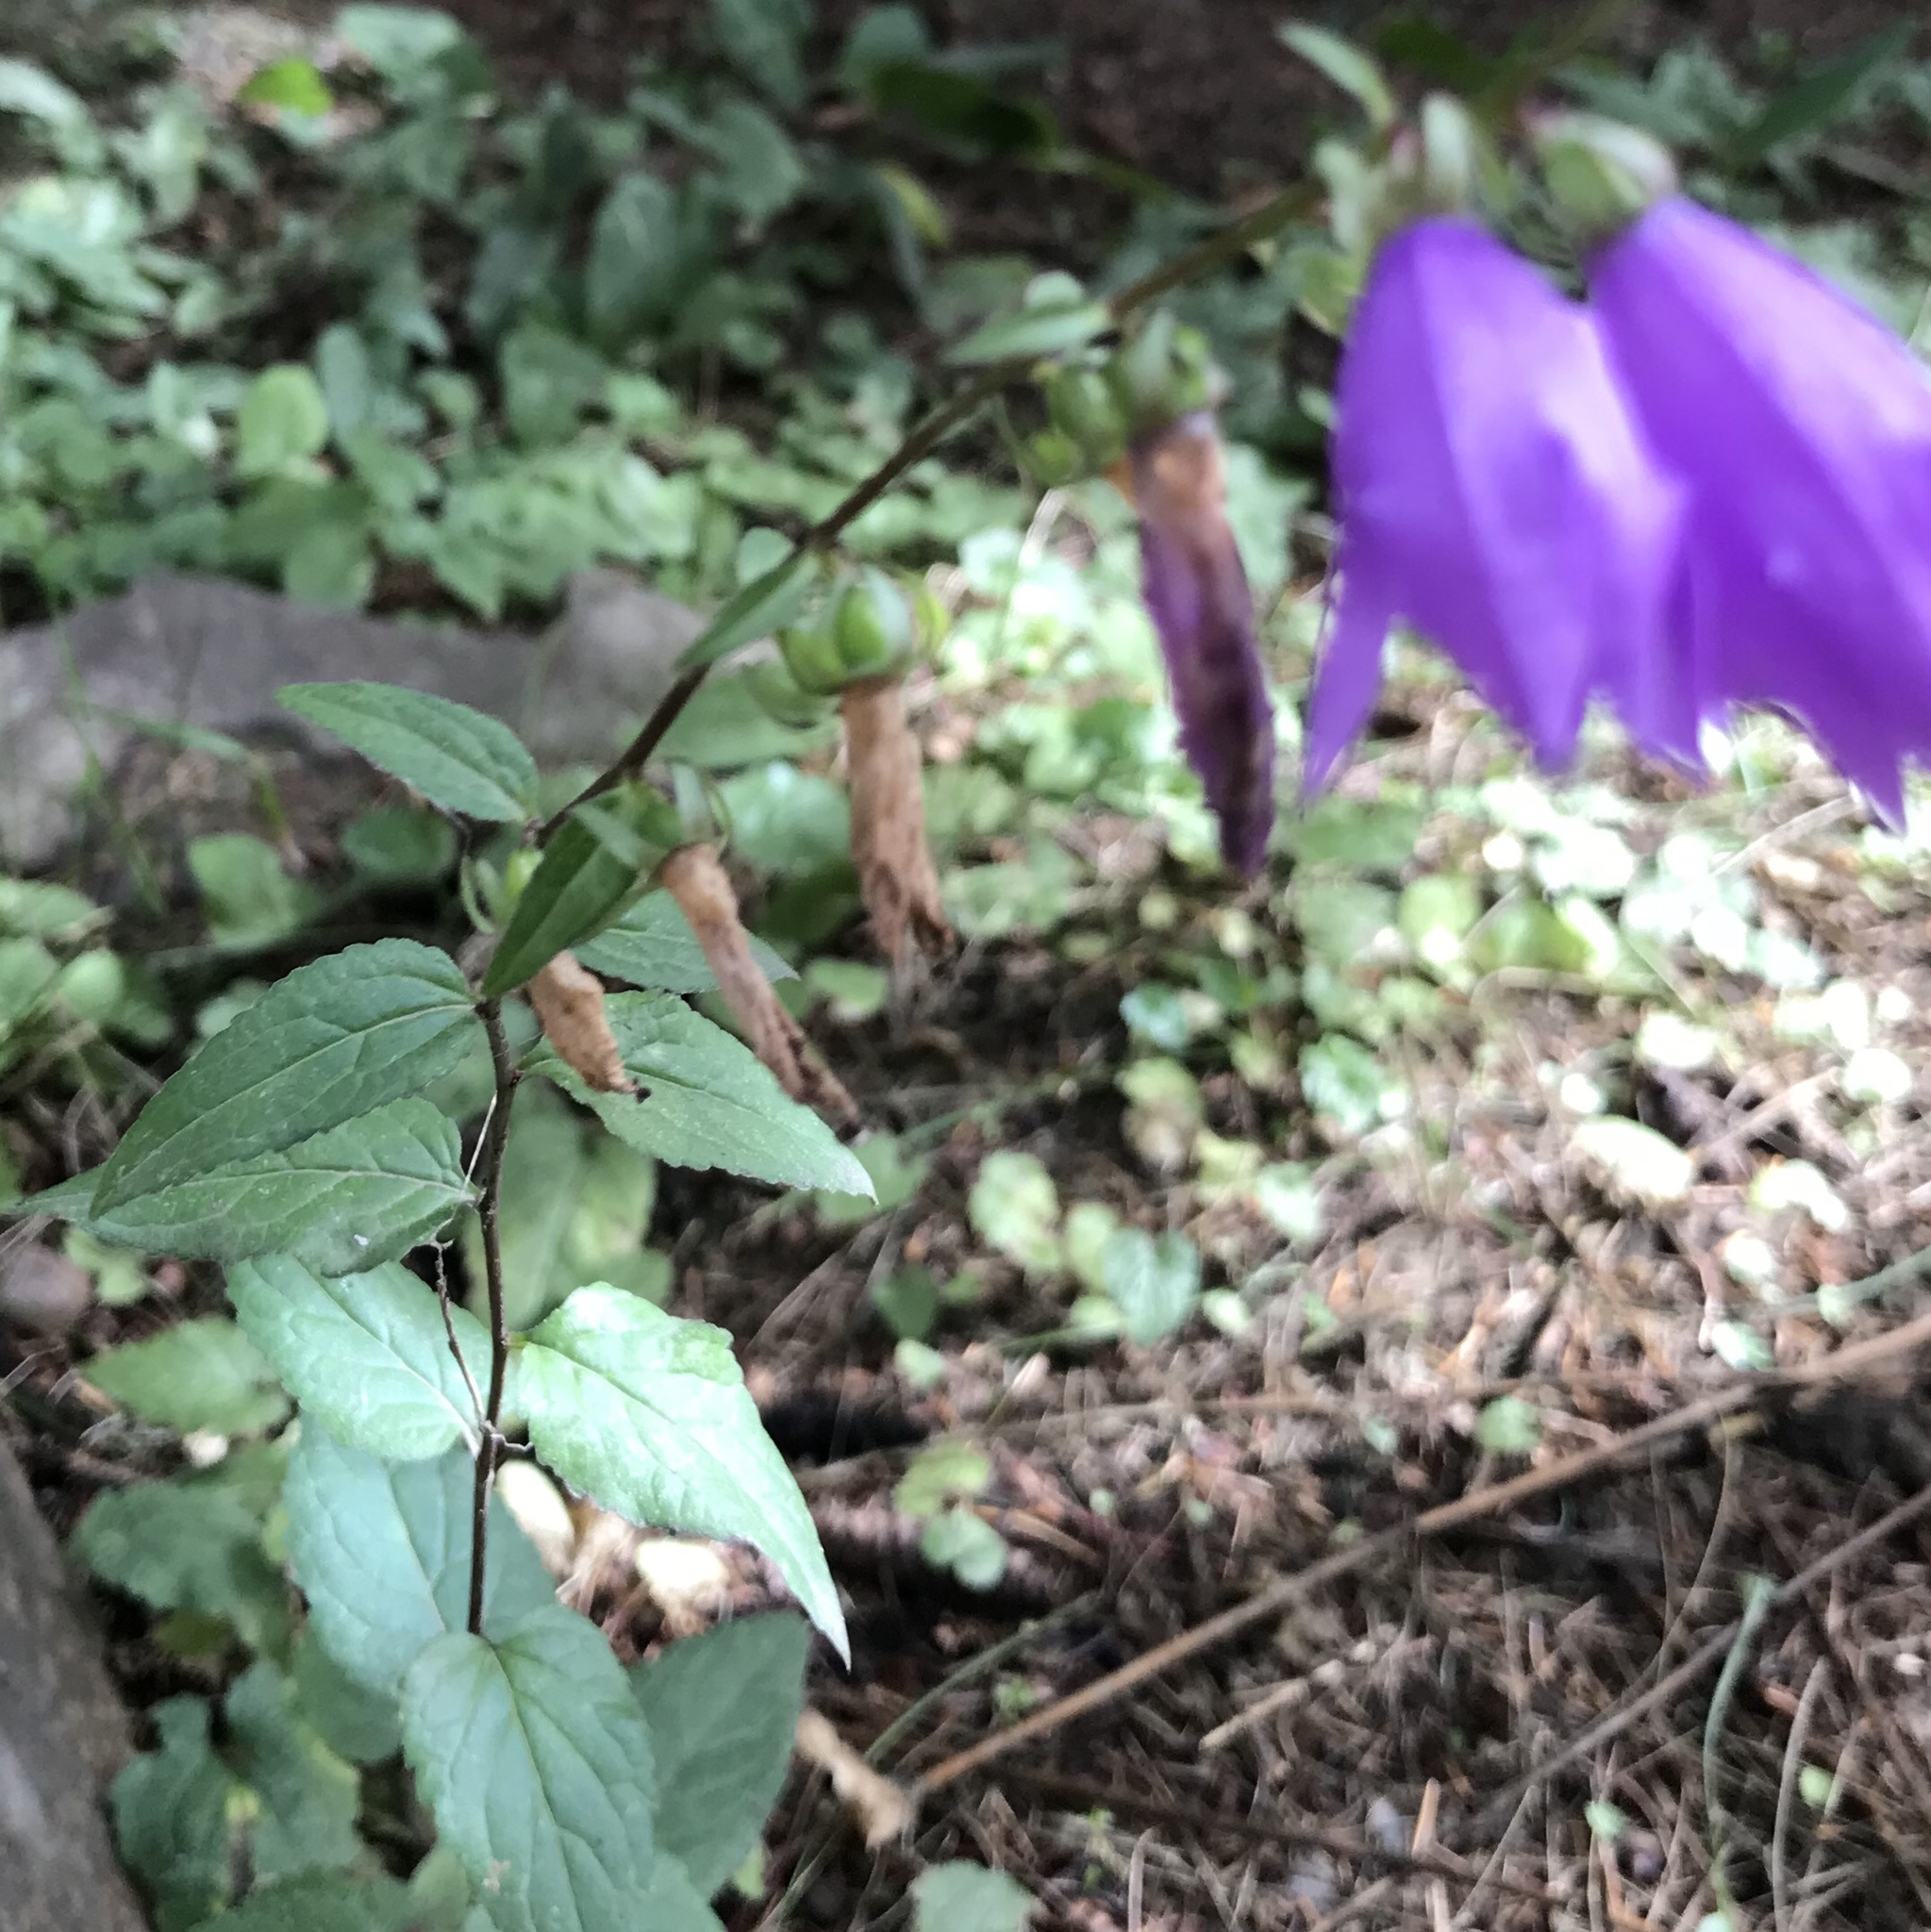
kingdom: Plantae
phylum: Tracheophyta
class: Magnoliopsida
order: Asterales
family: Campanulaceae
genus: Campanula
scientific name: Campanula rapunculoides
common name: Creeping bellflower
